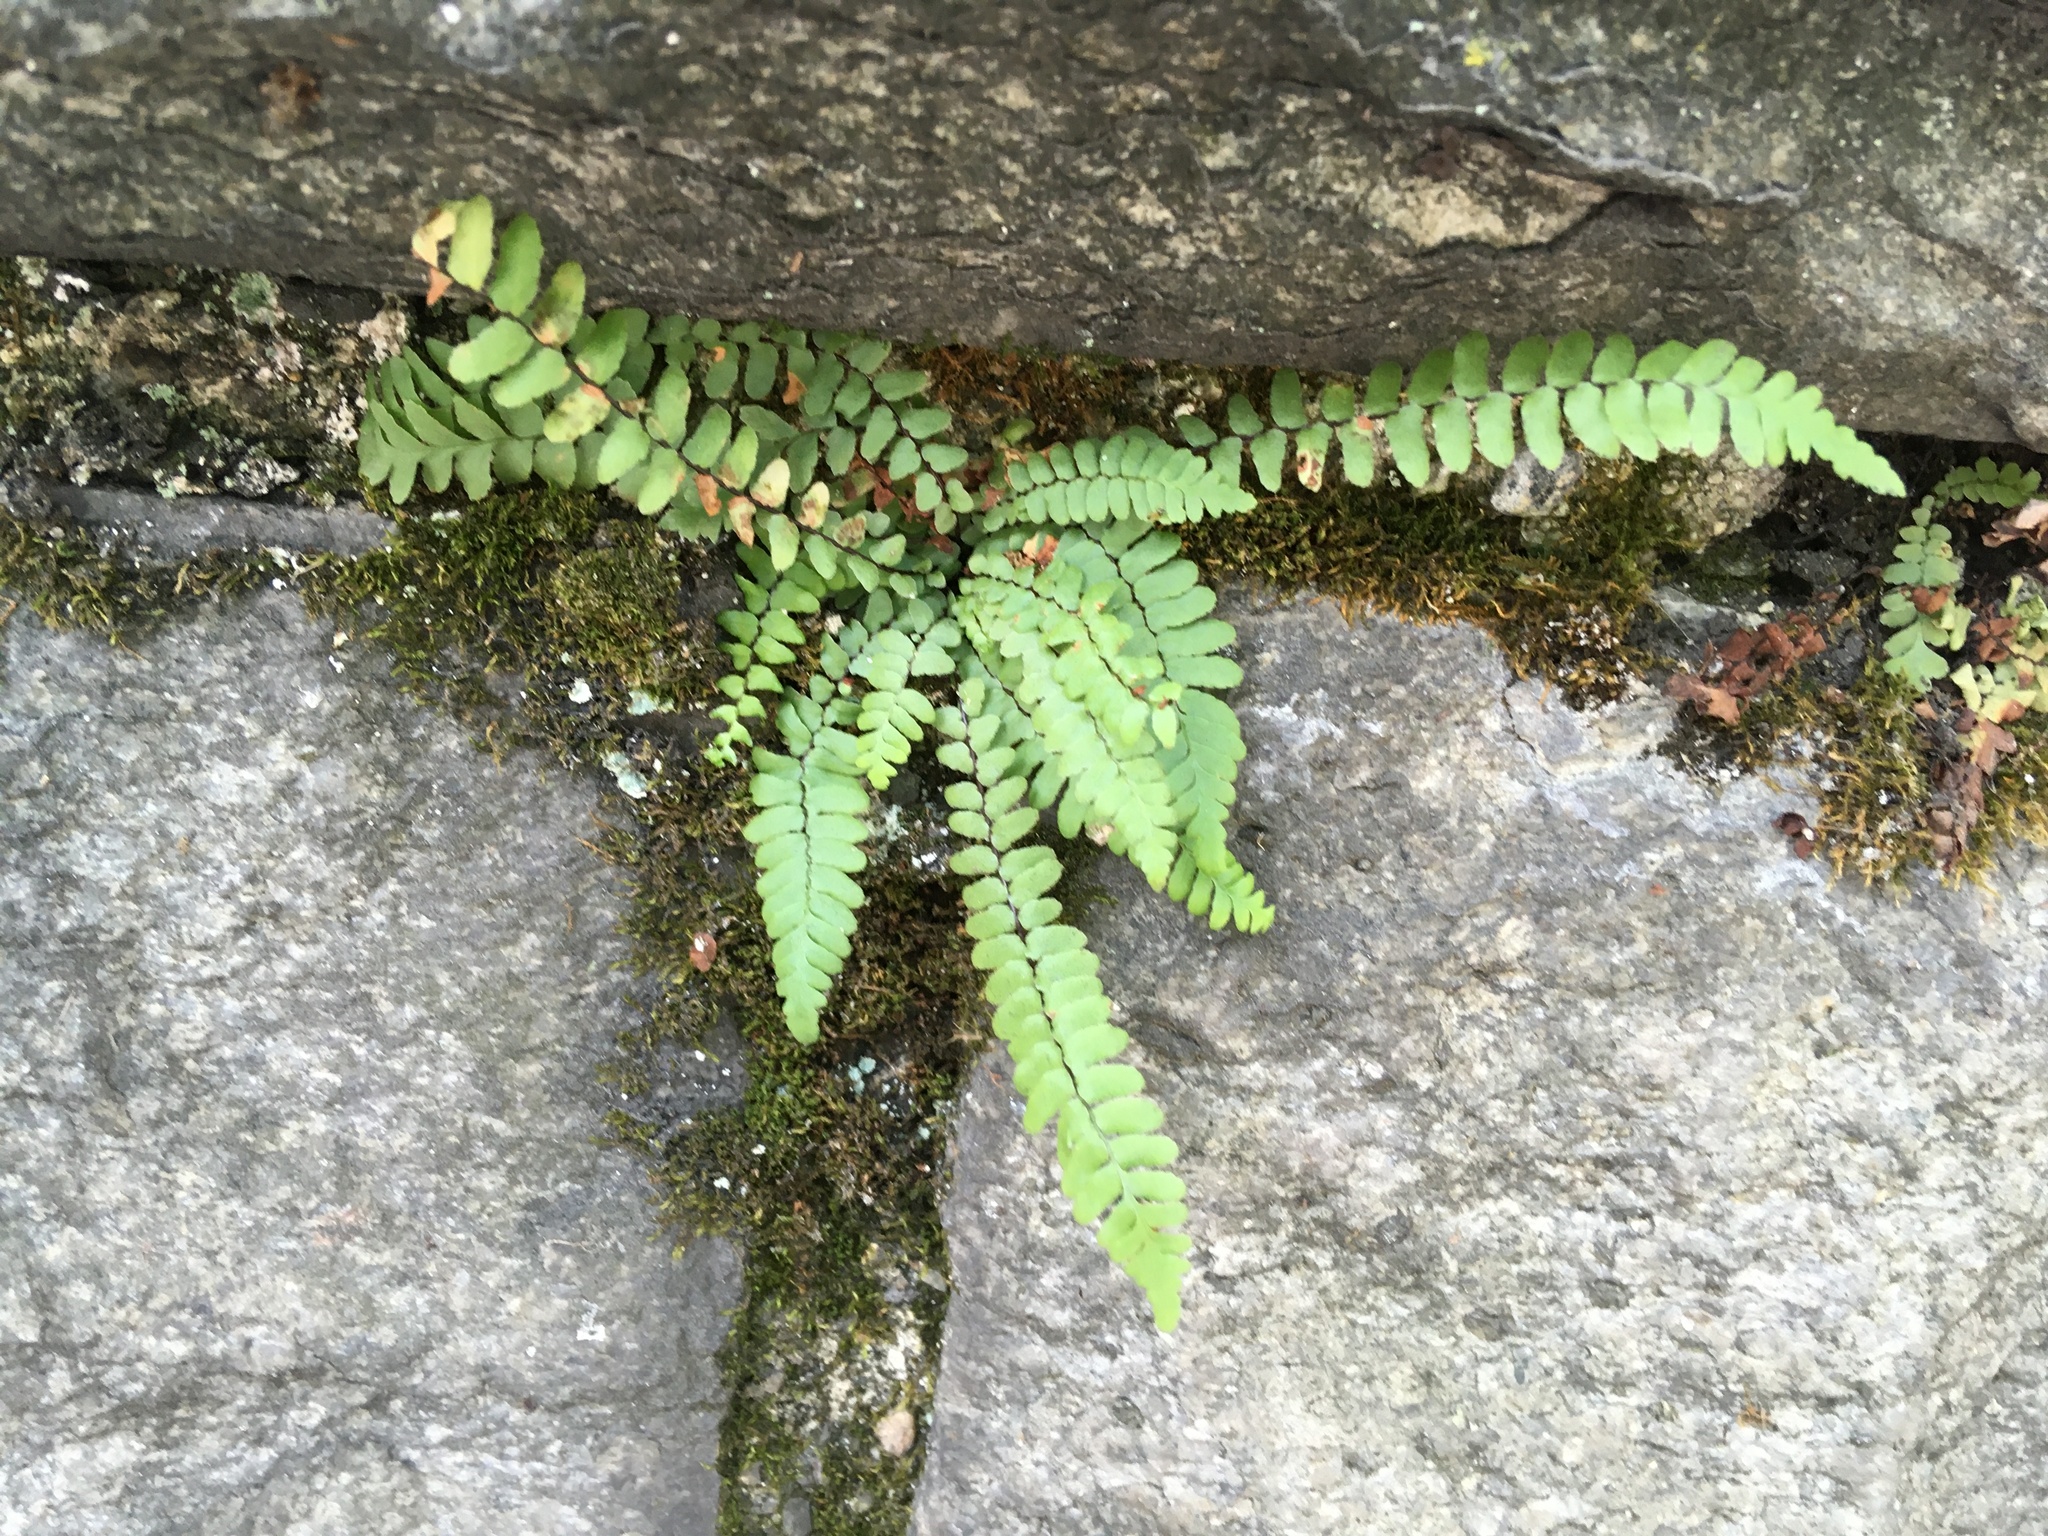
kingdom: Plantae
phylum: Tracheophyta
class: Polypodiopsida
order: Polypodiales
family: Aspleniaceae
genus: Asplenium
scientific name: Asplenium platyneuron
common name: Ebony spleenwort
